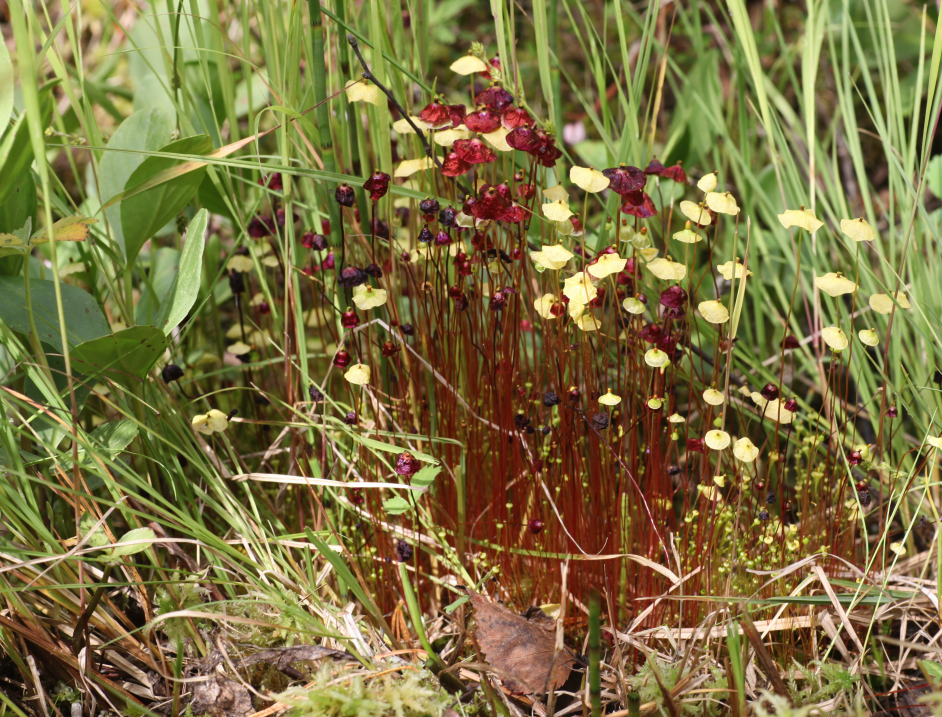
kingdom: Plantae
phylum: Bryophyta
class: Bryopsida
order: Splachnales
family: Splachnaceae
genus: Splachnum
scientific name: Splachnum rubrum
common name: Red dung moss
